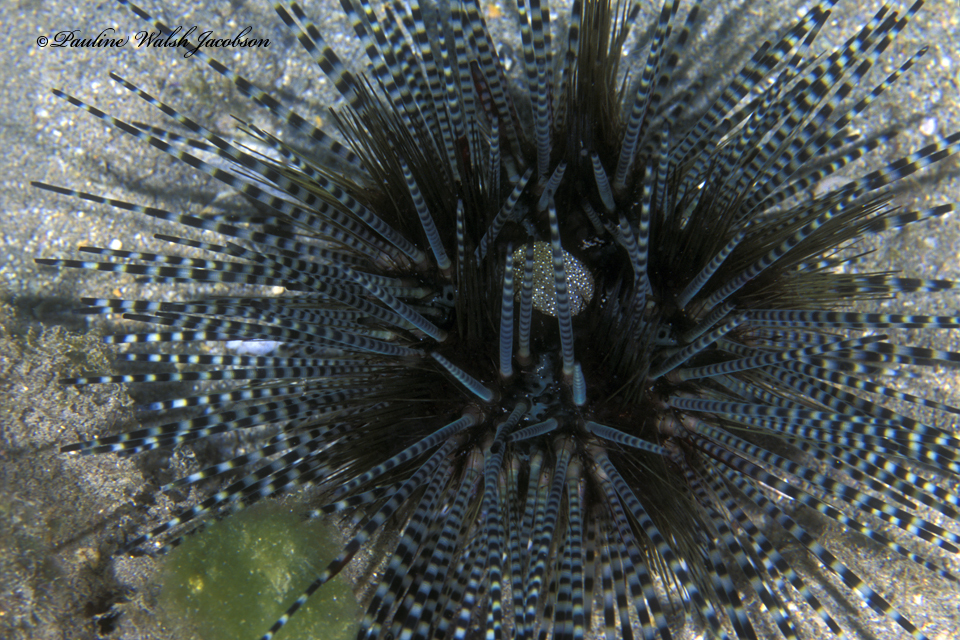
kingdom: Animalia
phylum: Echinodermata
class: Echinoidea
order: Diadematoida
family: Diadematidae
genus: Echinothrix
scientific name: Echinothrix calamaris
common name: Banded sea urchin
